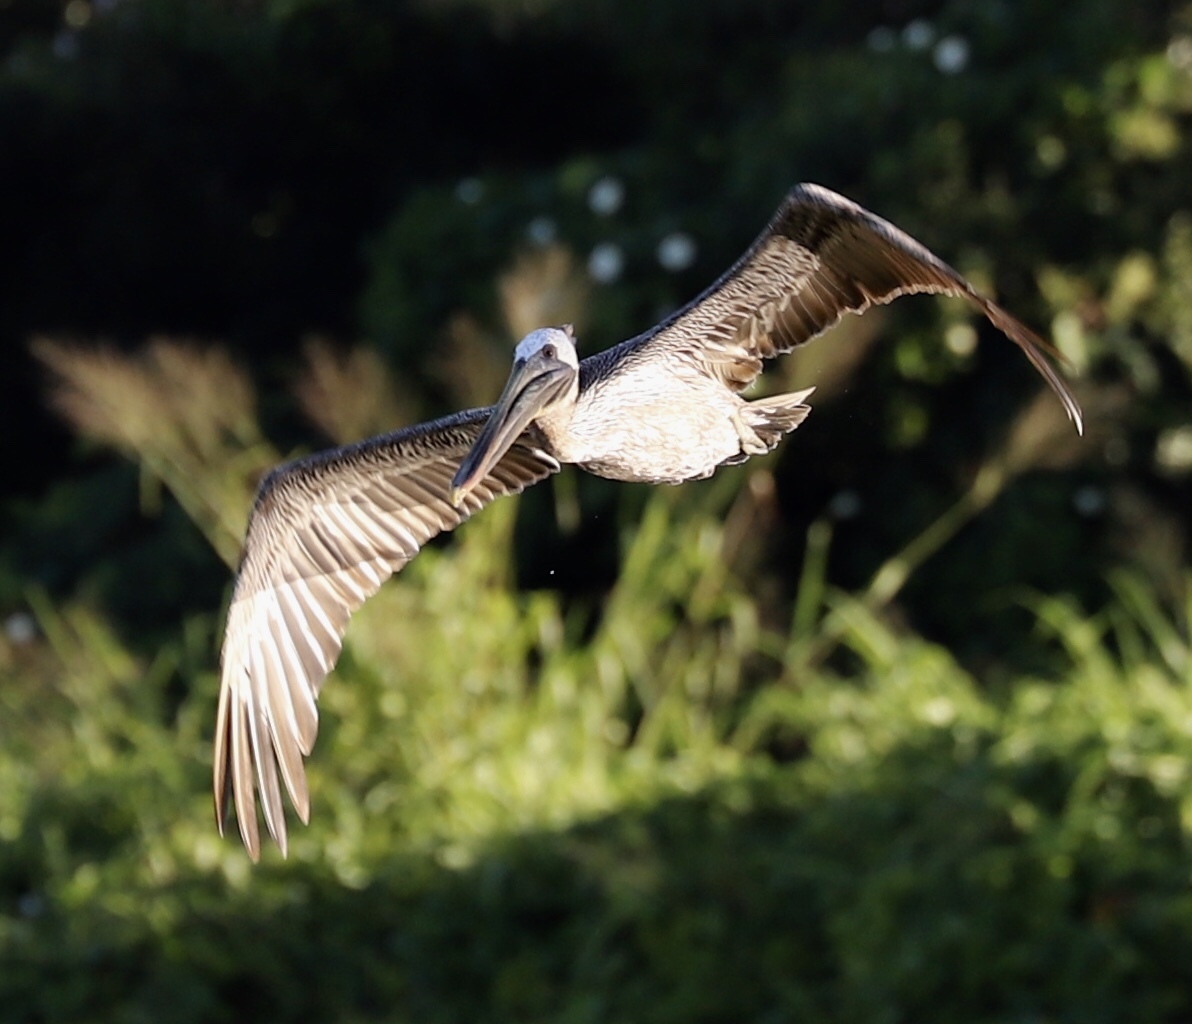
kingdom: Animalia
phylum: Chordata
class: Aves
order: Pelecaniformes
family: Pelecanidae
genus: Pelecanus
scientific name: Pelecanus occidentalis
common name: Brown pelican
